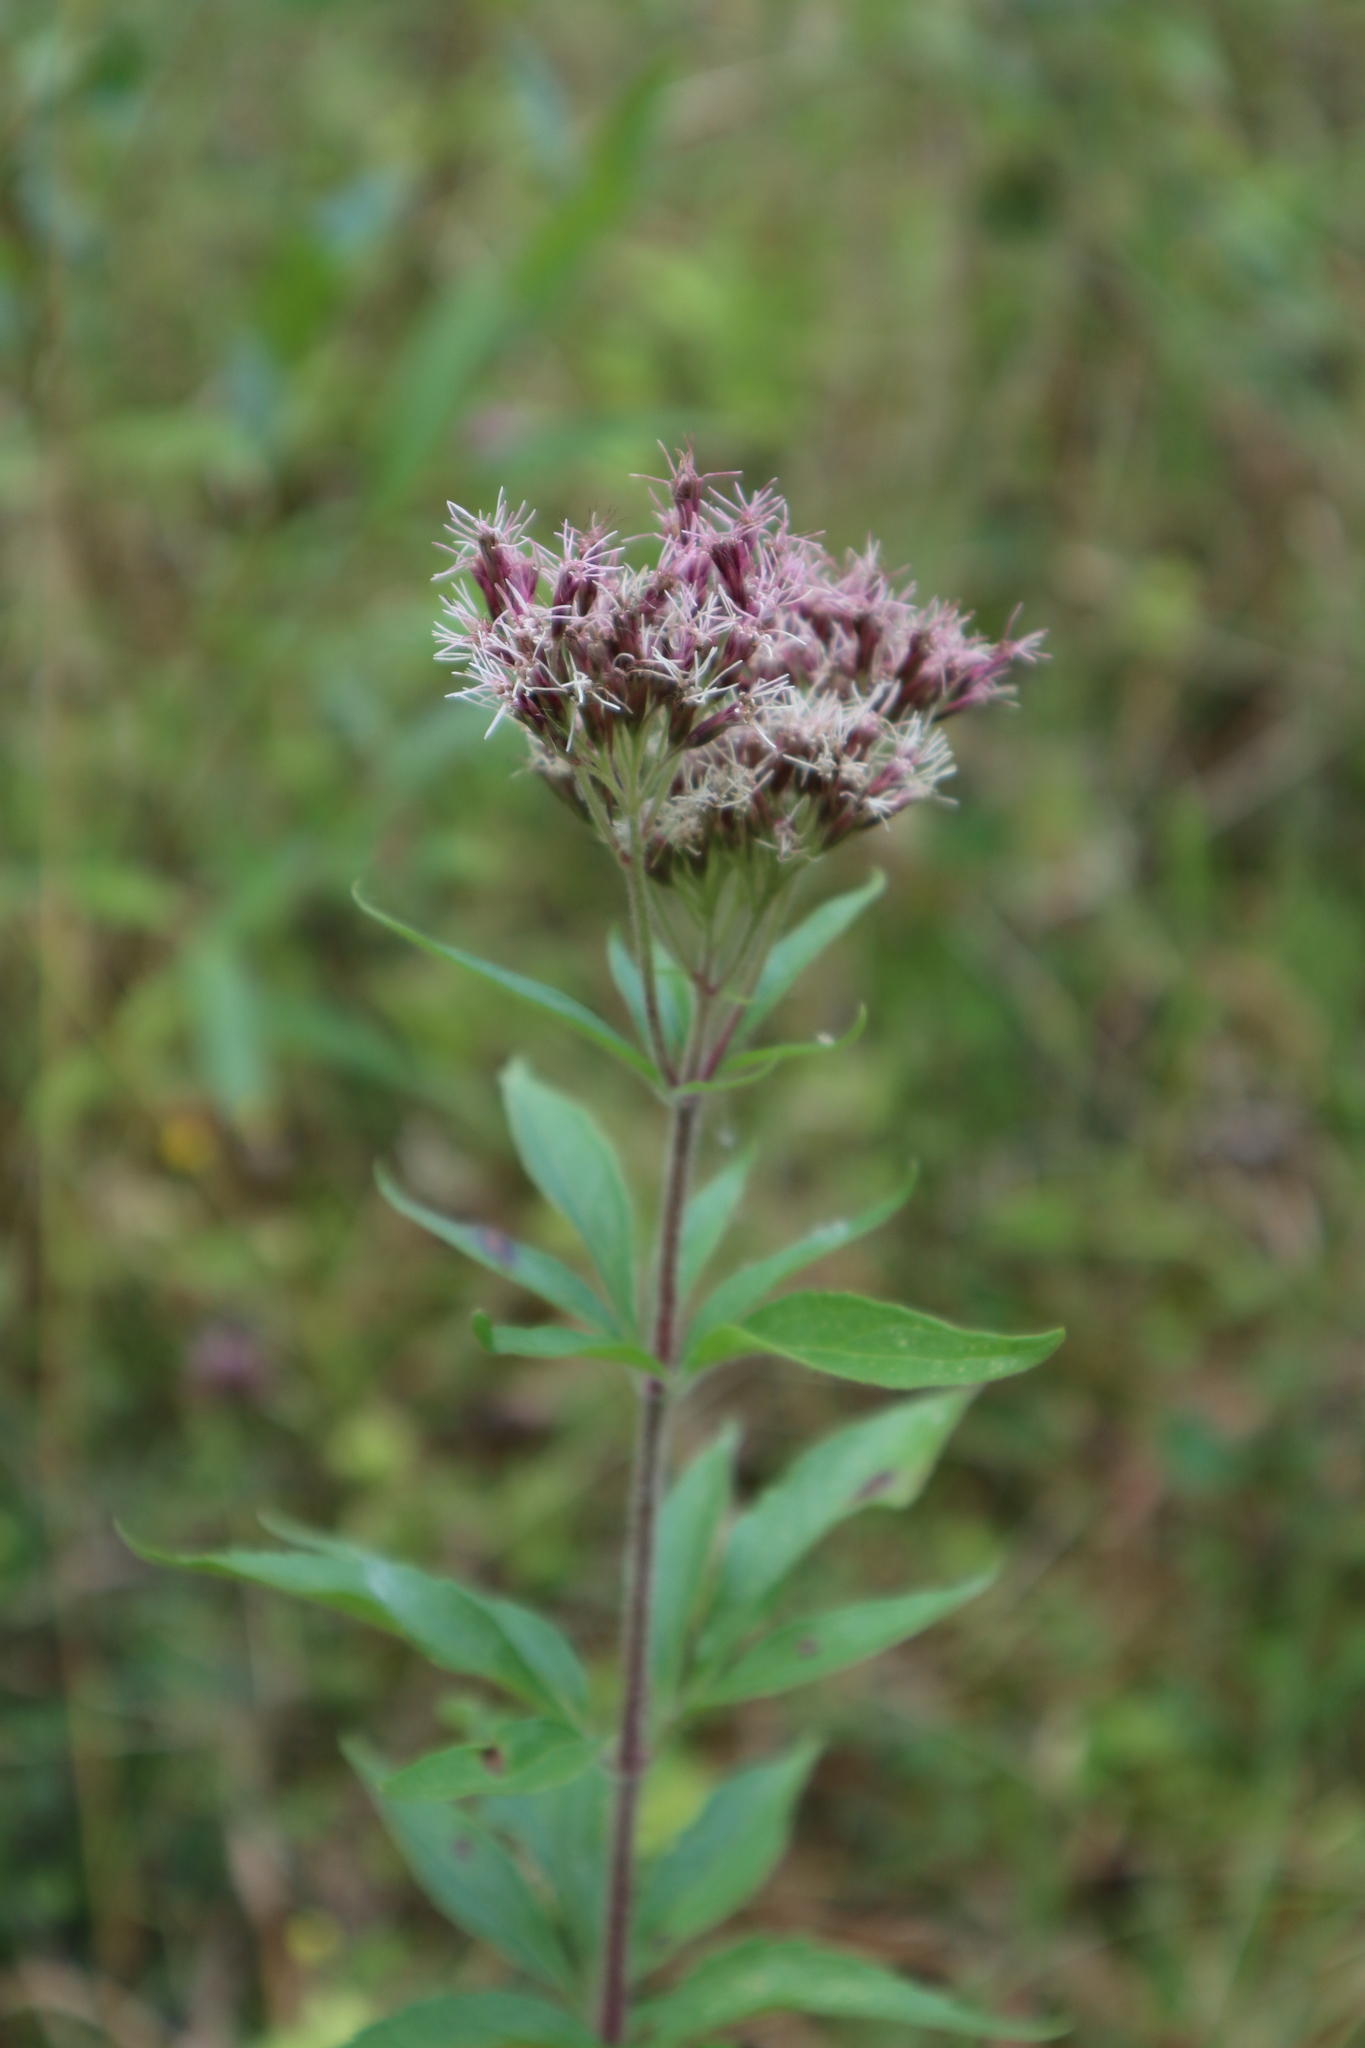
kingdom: Plantae
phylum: Tracheophyta
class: Magnoliopsida
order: Asterales
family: Asteraceae
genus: Eupatorium
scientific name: Eupatorium cannabinum
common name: Hemp-agrimony
